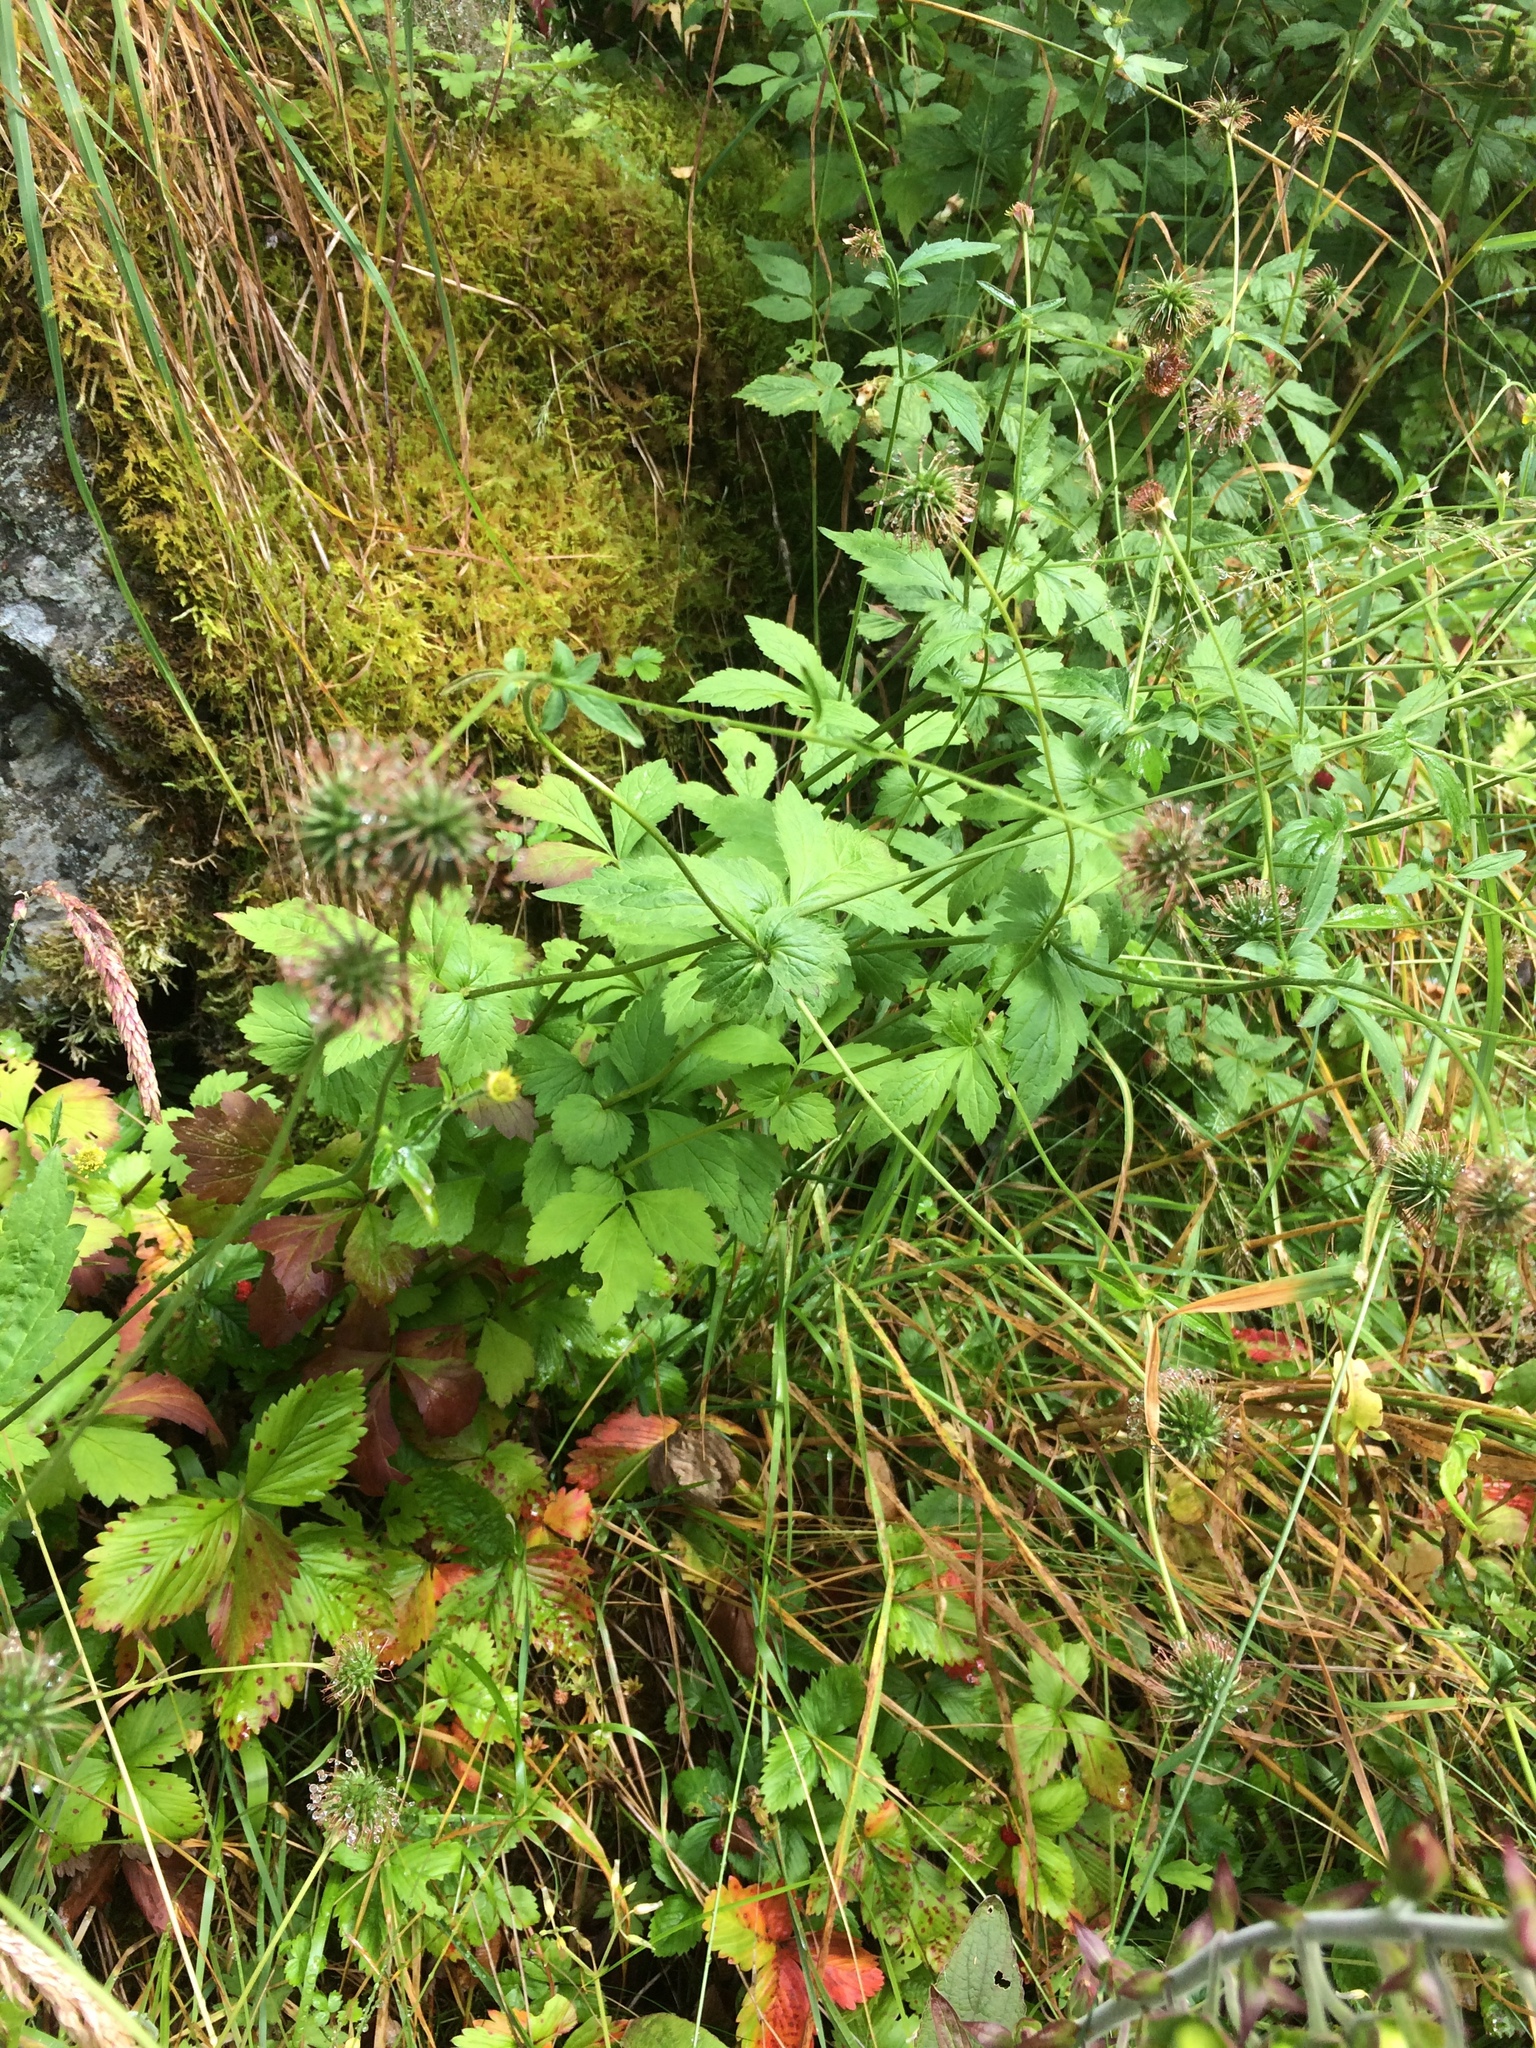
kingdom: Plantae
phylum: Tracheophyta
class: Magnoliopsida
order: Rosales
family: Rosaceae
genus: Geum
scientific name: Geum urbanum
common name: Wood avens
